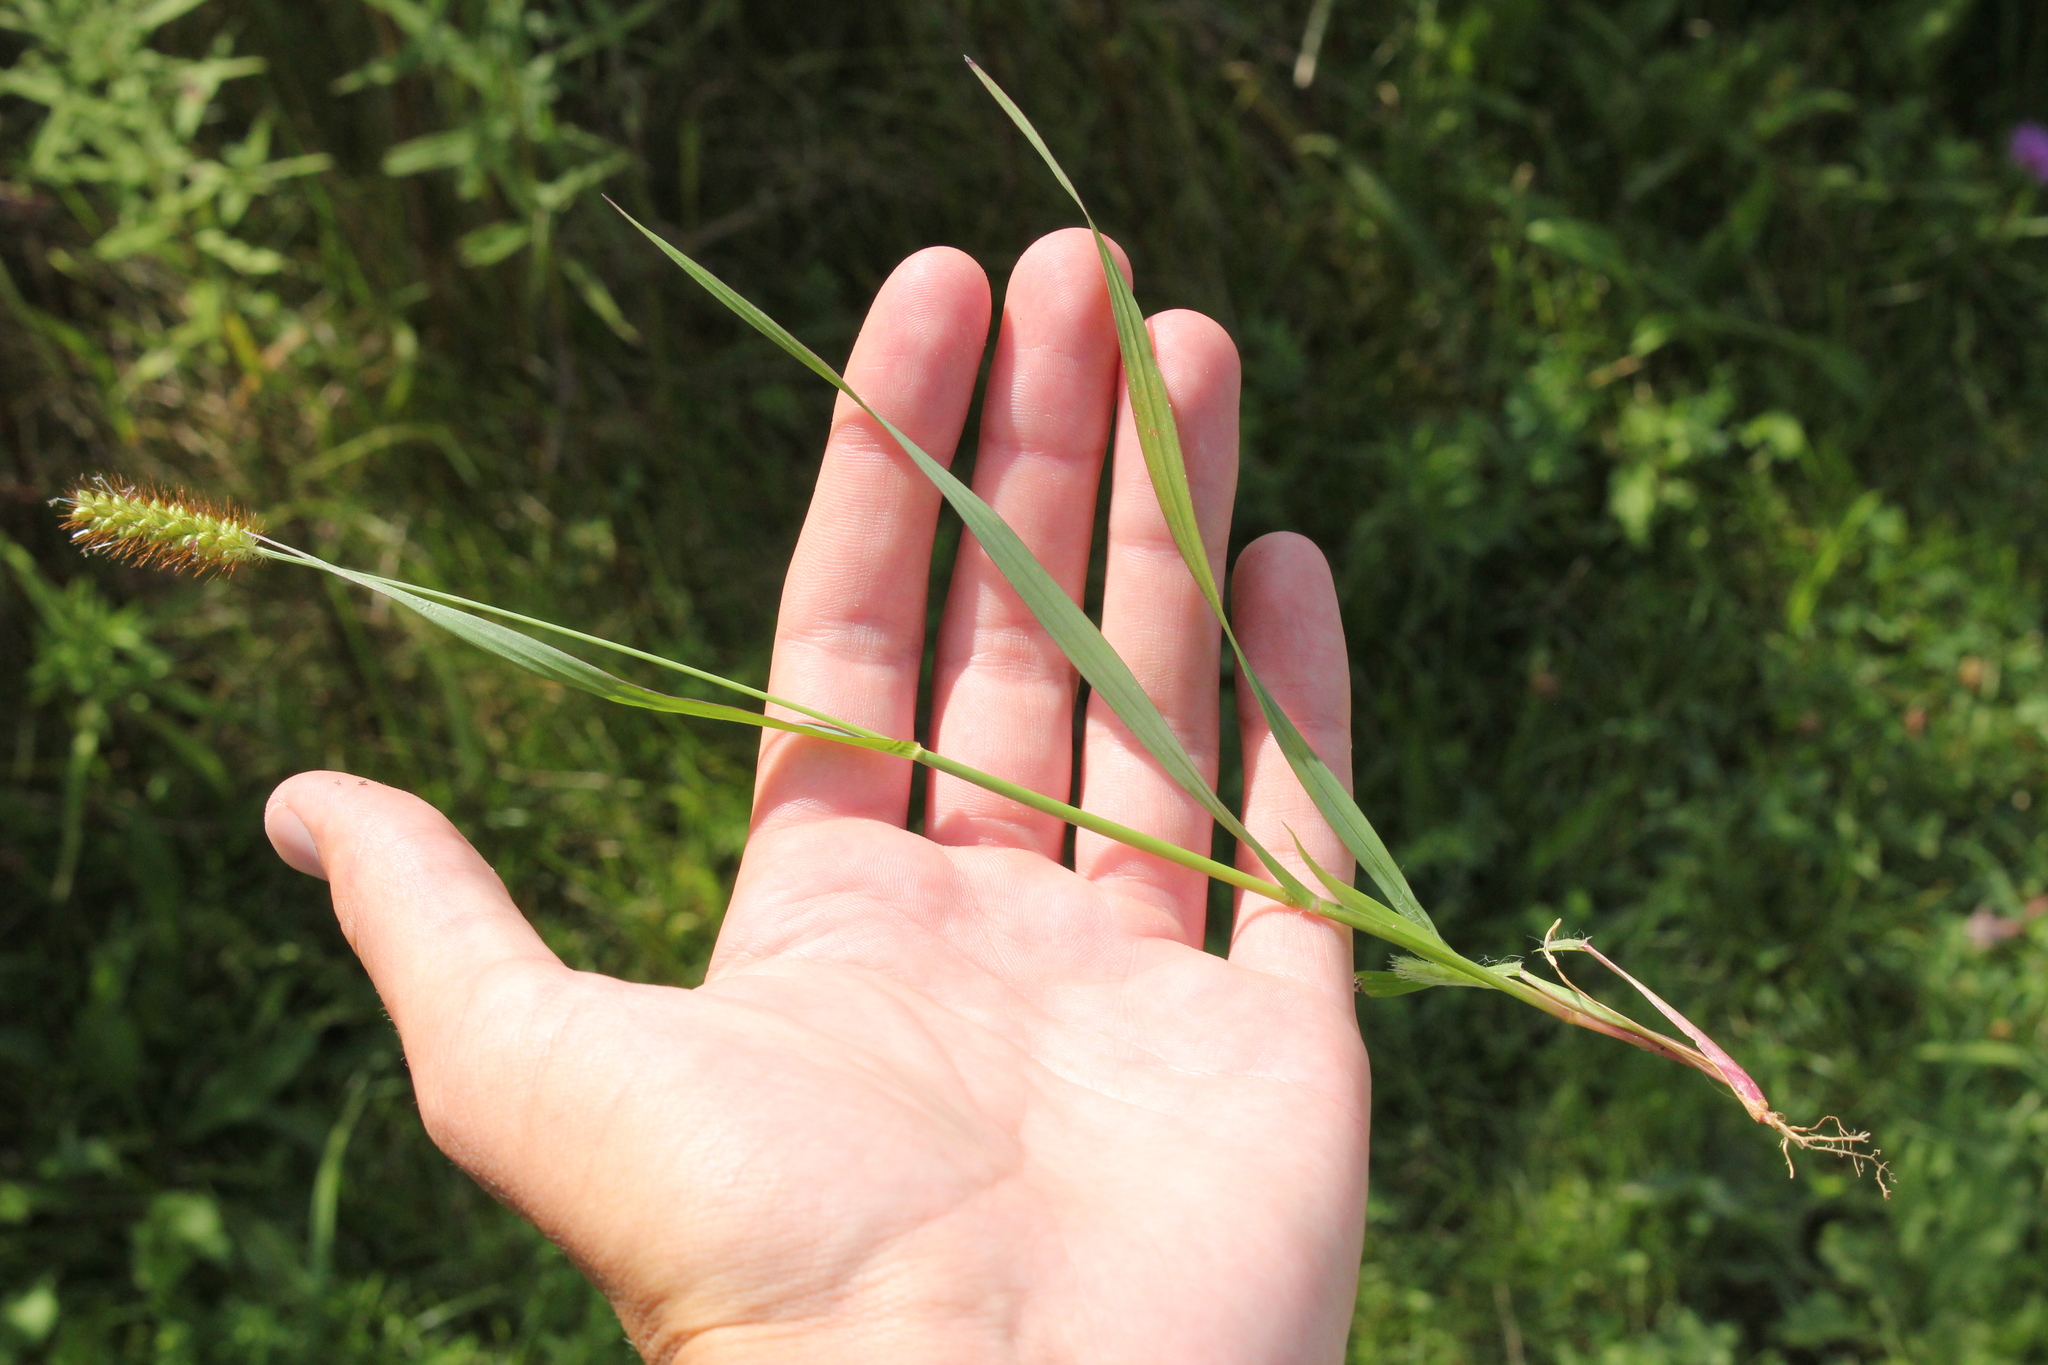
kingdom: Plantae
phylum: Tracheophyta
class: Liliopsida
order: Poales
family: Poaceae
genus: Setaria
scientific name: Setaria pumila
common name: Yellow bristle-grass
